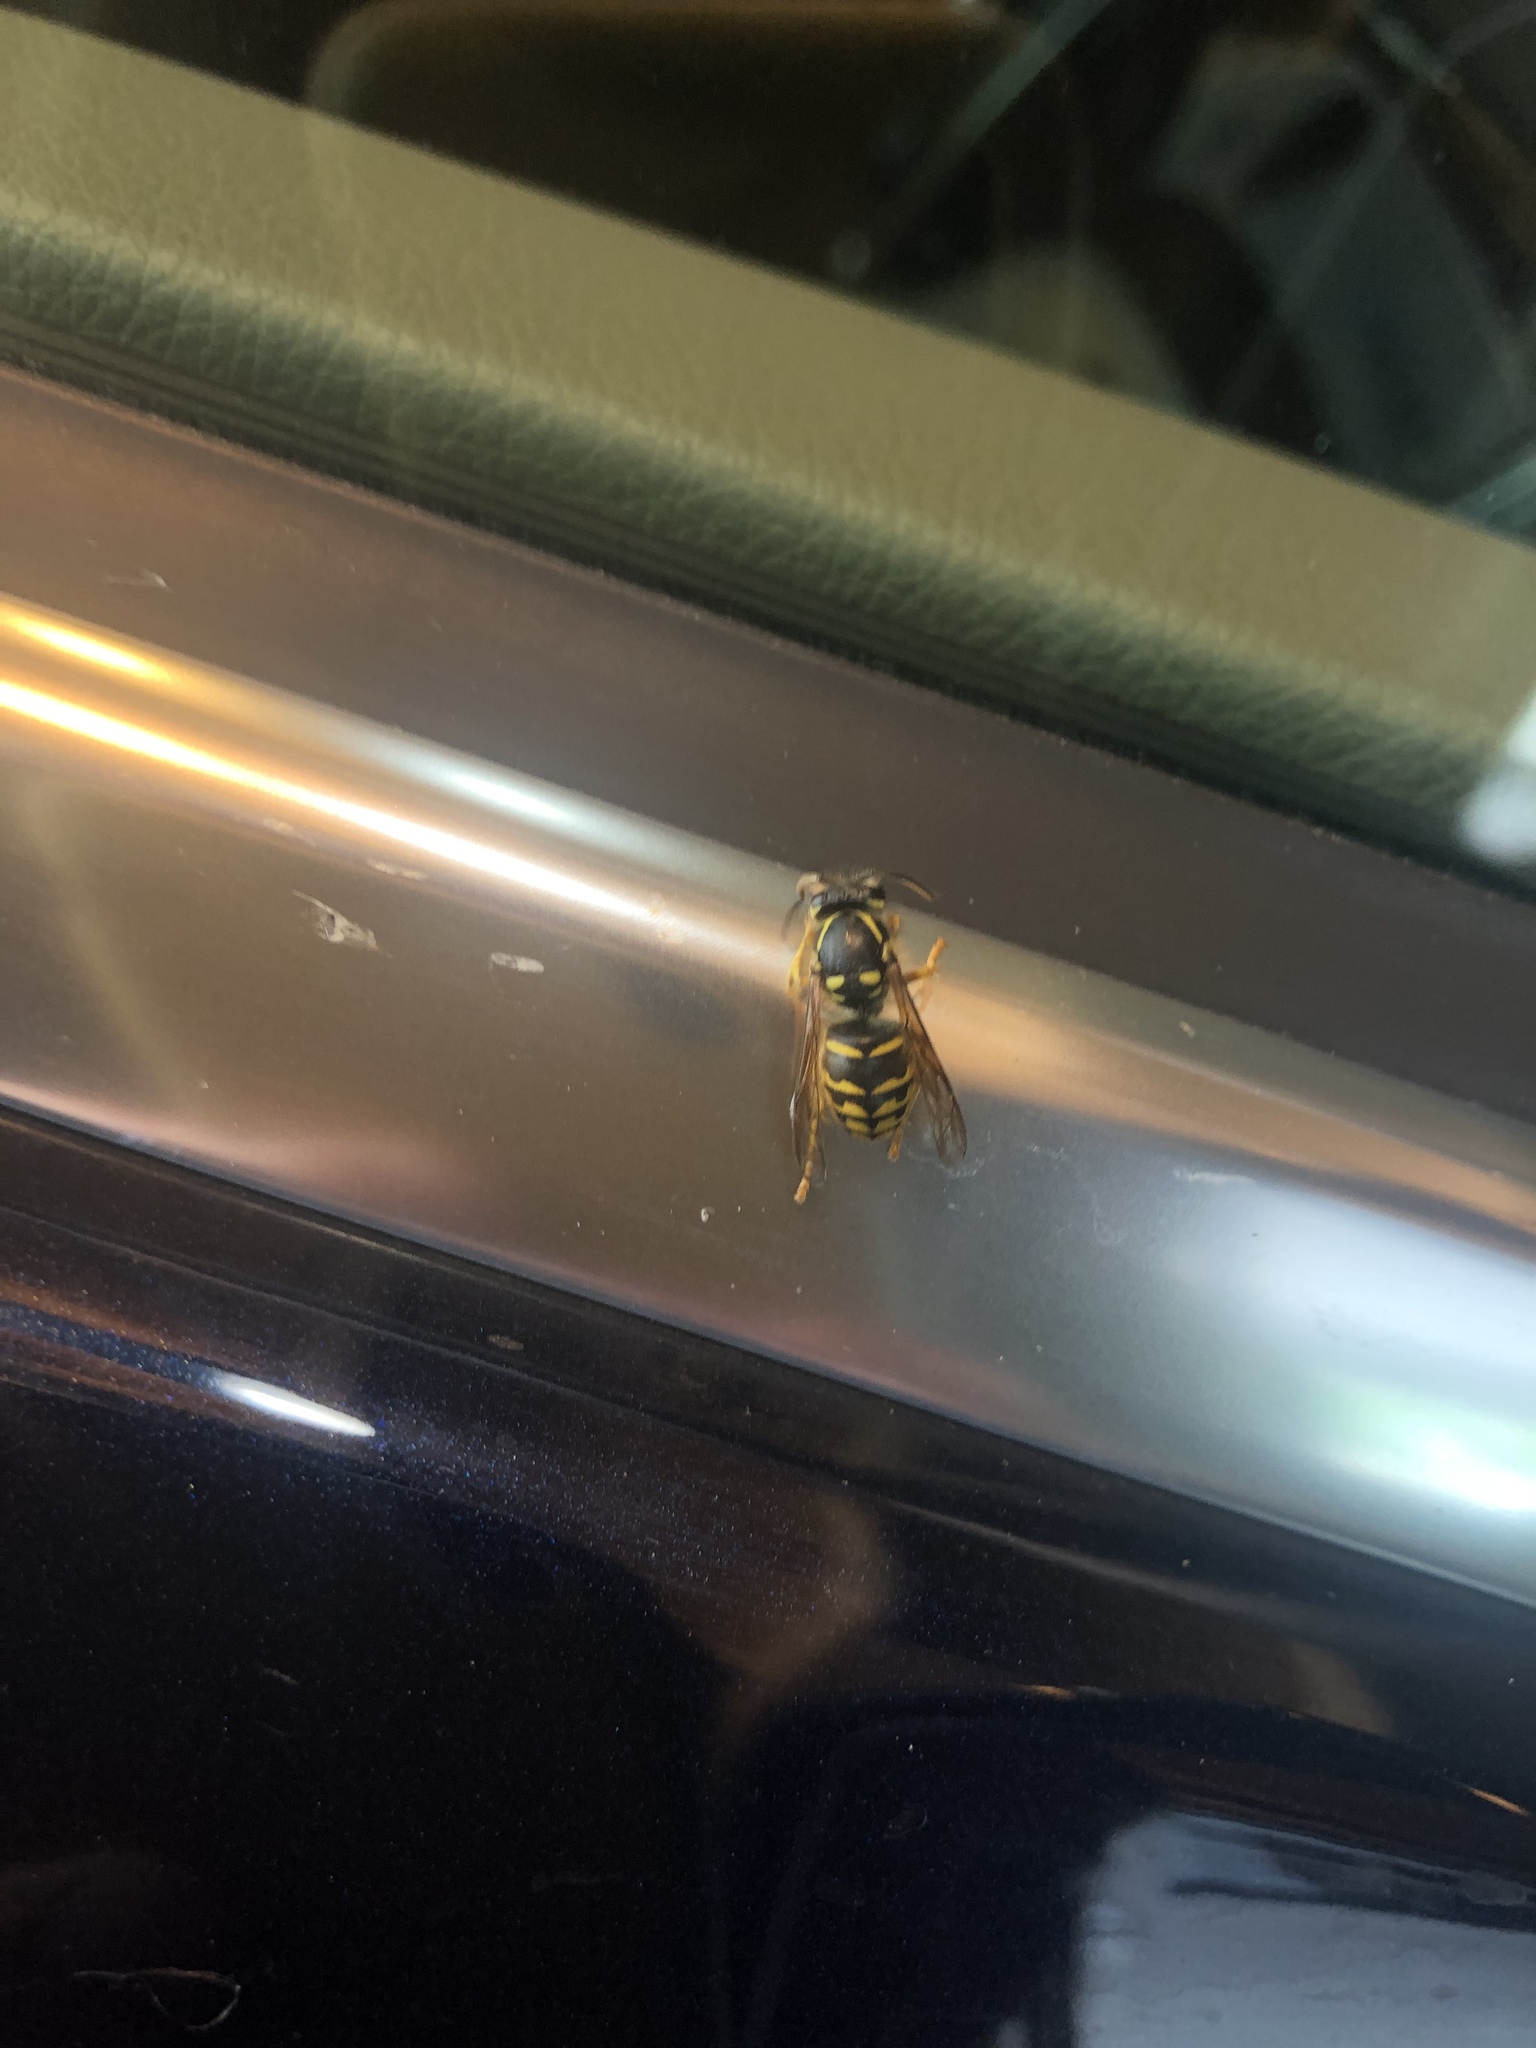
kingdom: Animalia
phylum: Arthropoda
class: Insecta
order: Hymenoptera
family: Vespidae
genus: Dolichovespula
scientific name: Dolichovespula arenaria
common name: Aerial yellowjacket
